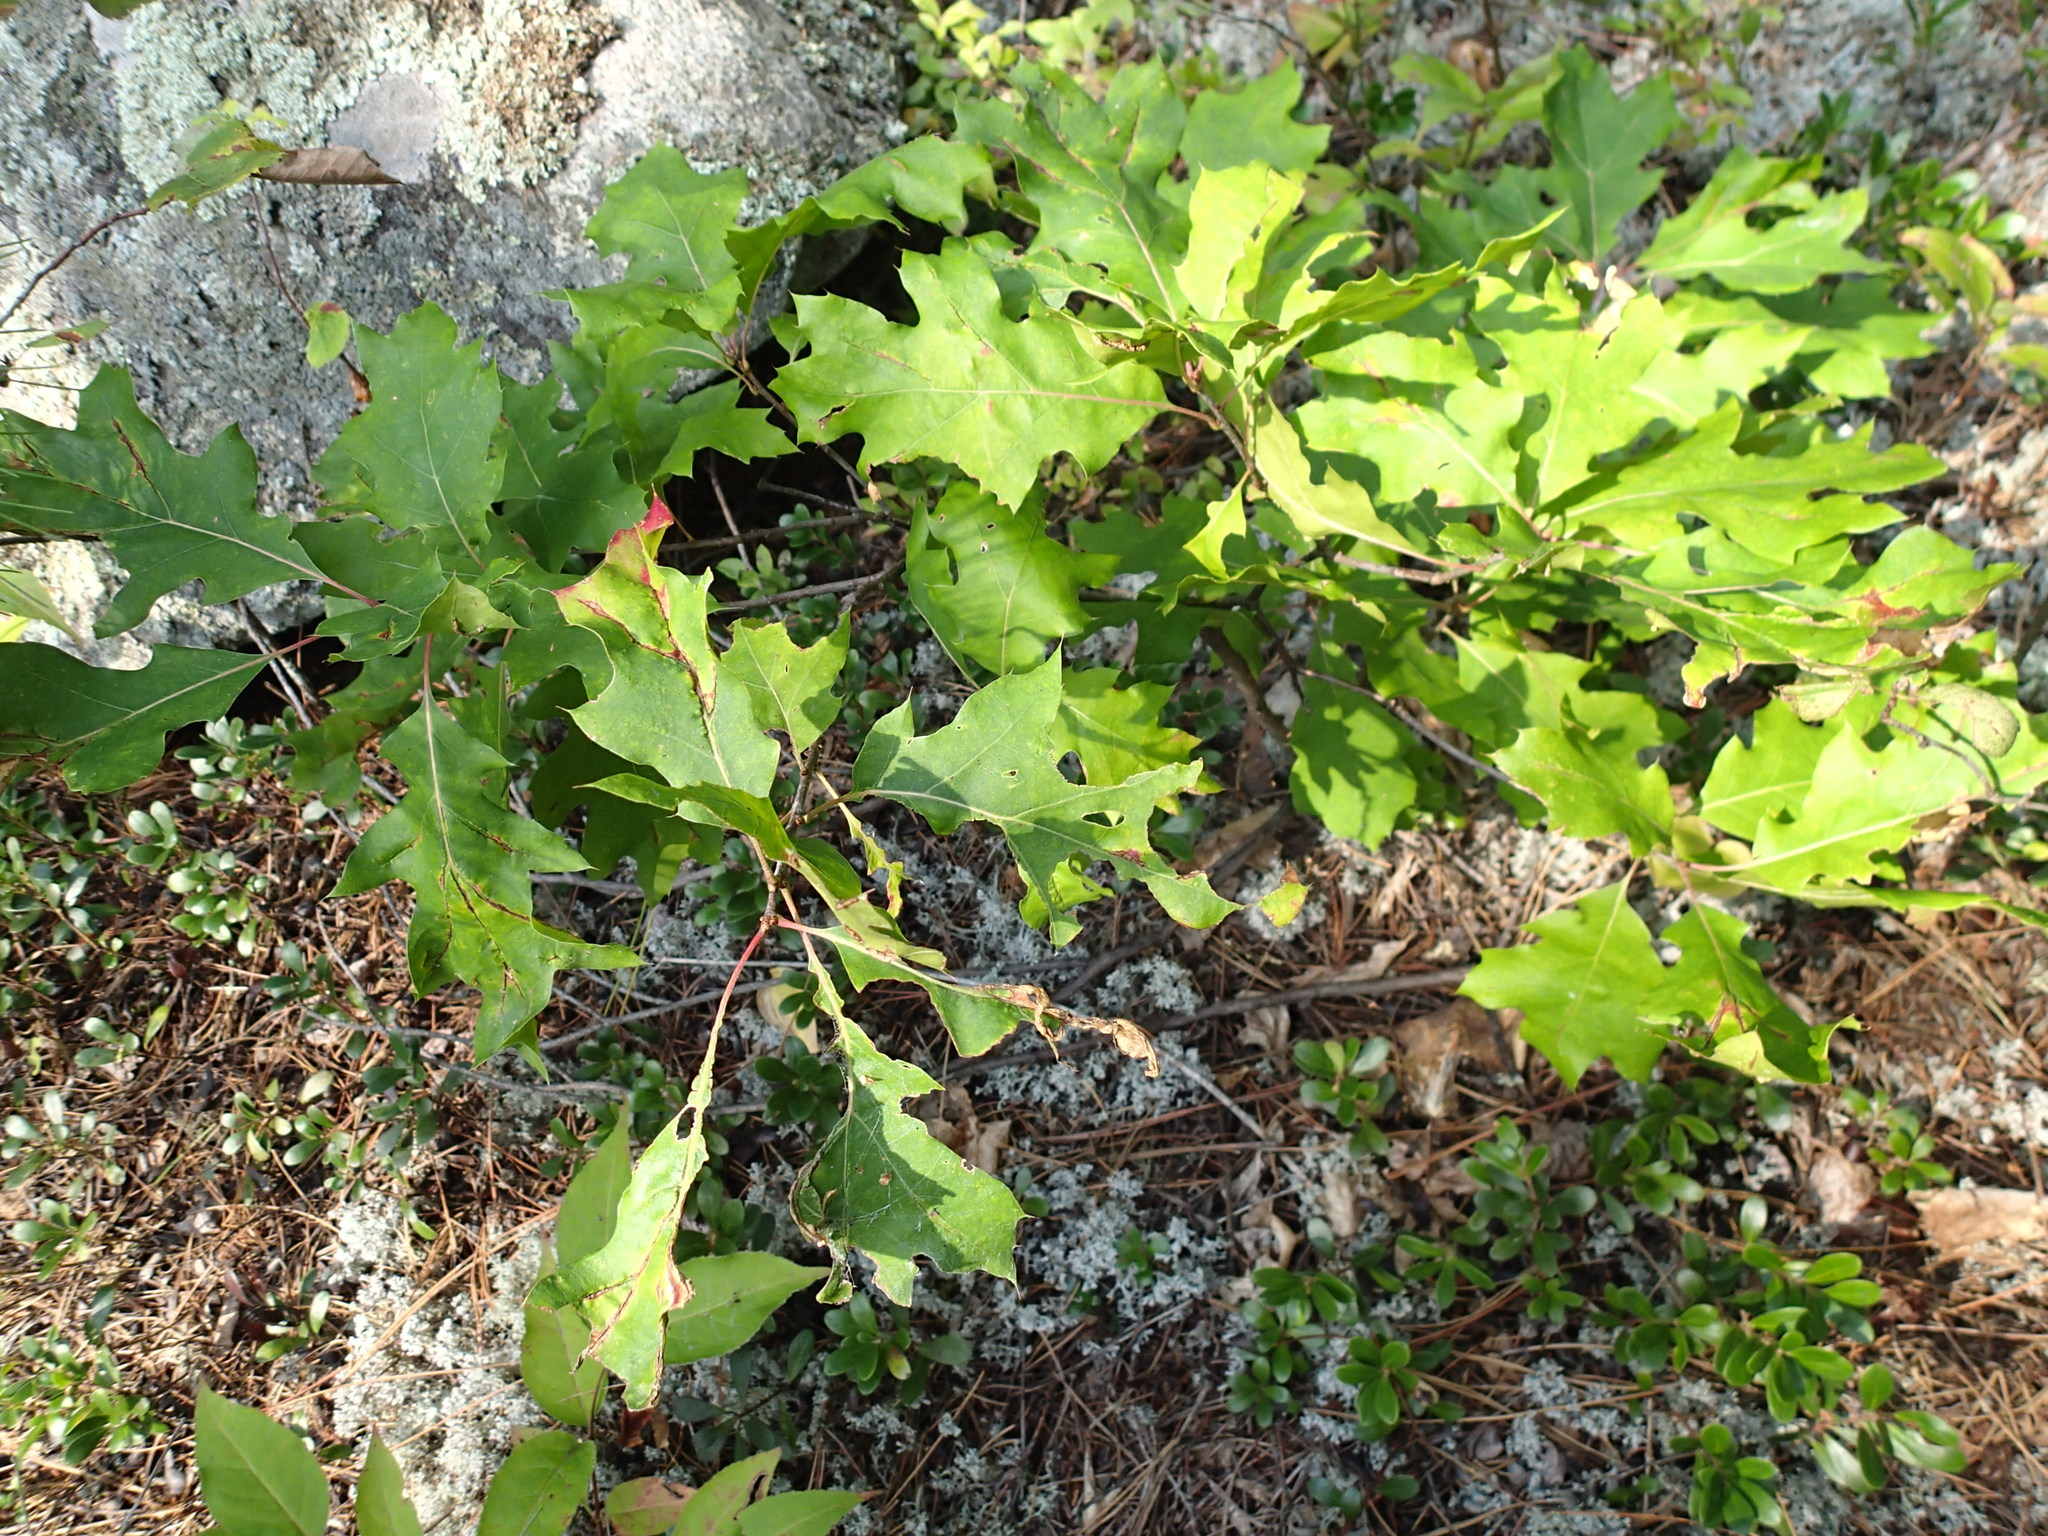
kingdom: Plantae
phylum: Tracheophyta
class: Magnoliopsida
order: Fagales
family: Fagaceae
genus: Quercus
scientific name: Quercus ellipsoidalis
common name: Hill's oak
